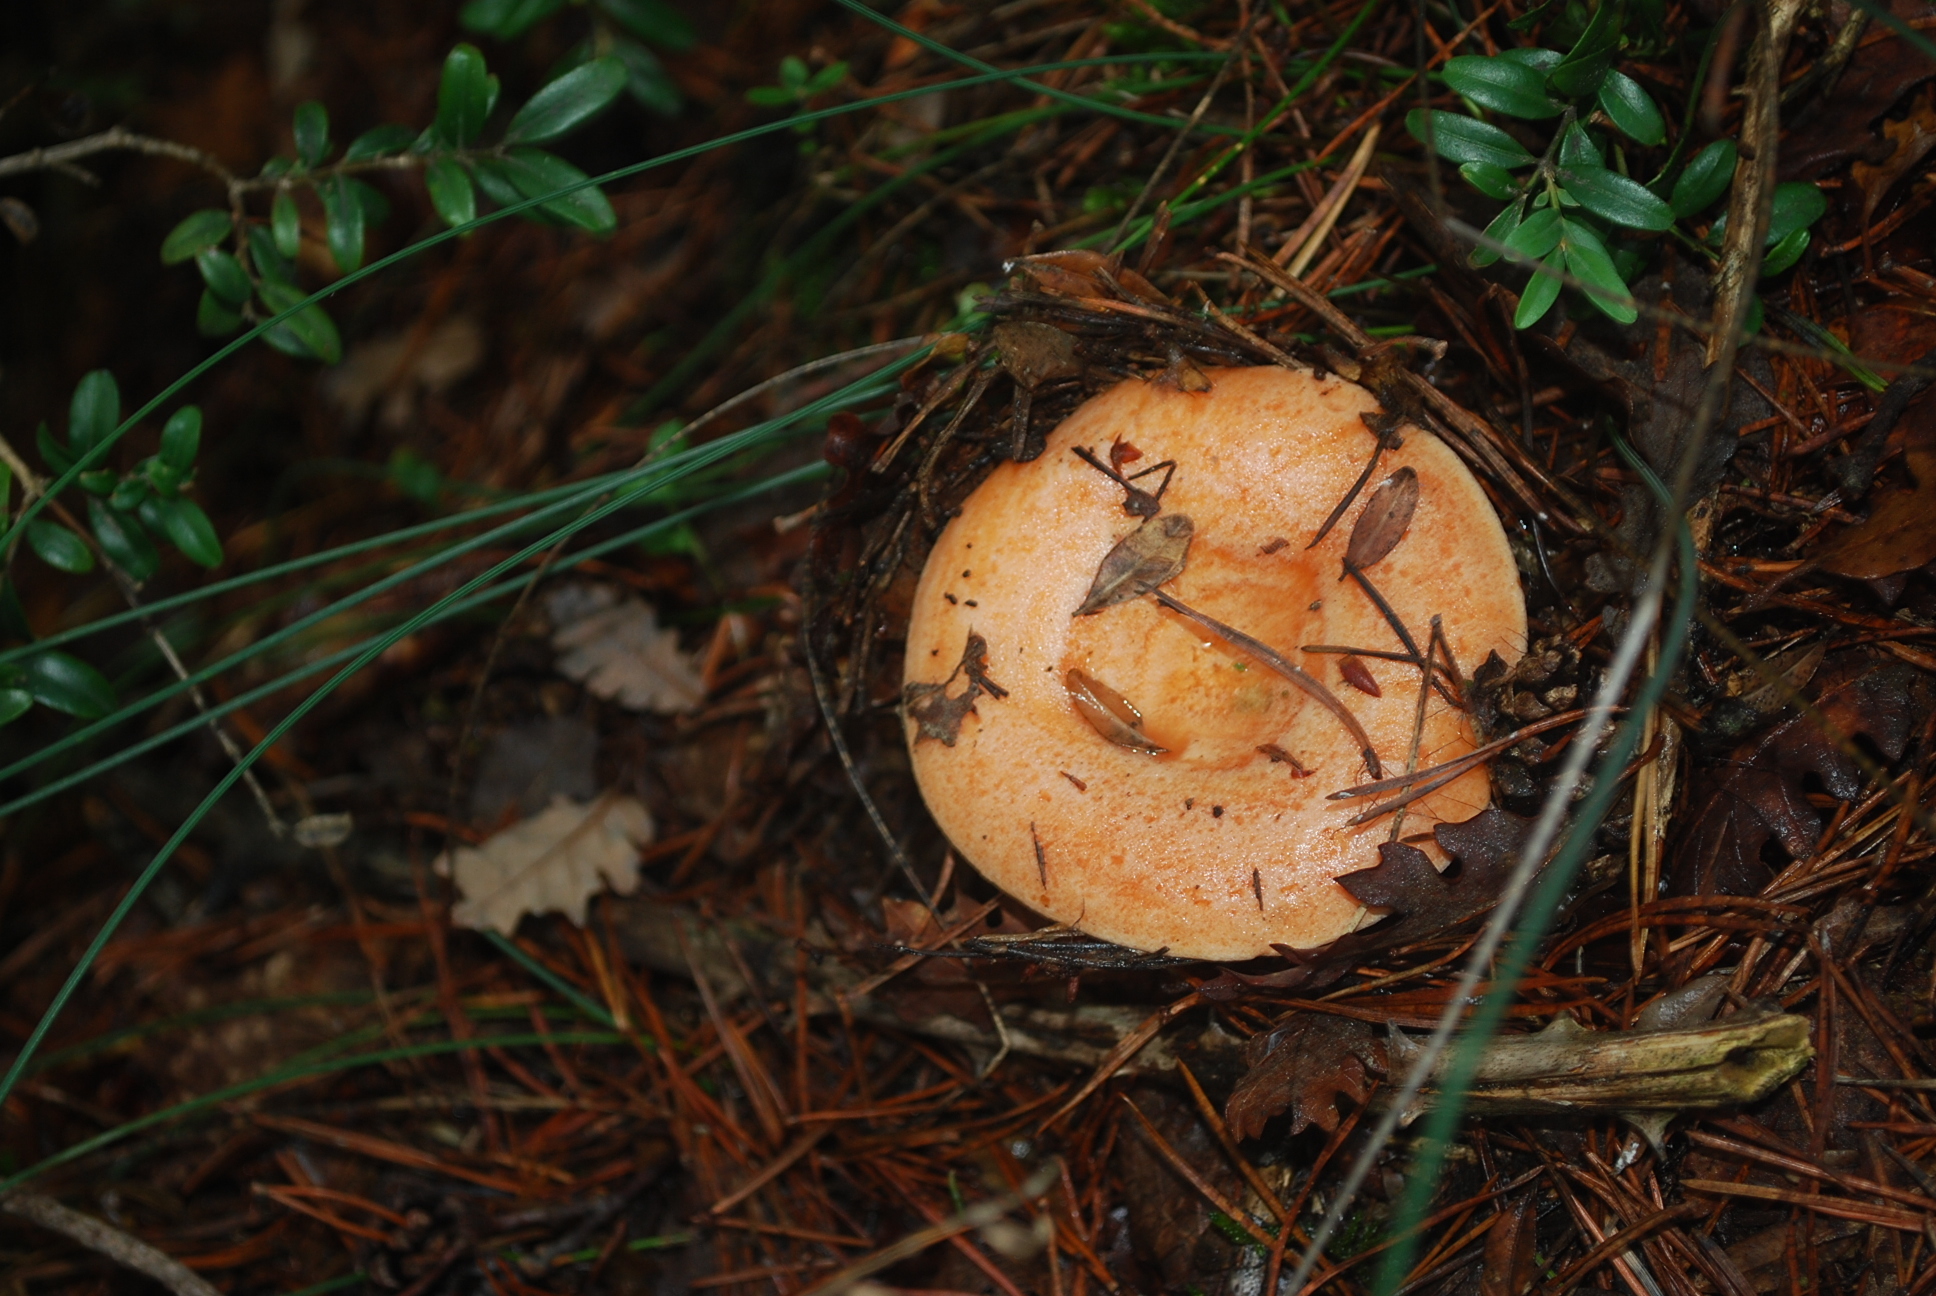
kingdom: Fungi
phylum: Basidiomycota
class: Agaricomycetes
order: Russulales
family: Russulaceae
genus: Lactarius
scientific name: Lactarius deliciosus
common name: Saffron milk-cap
